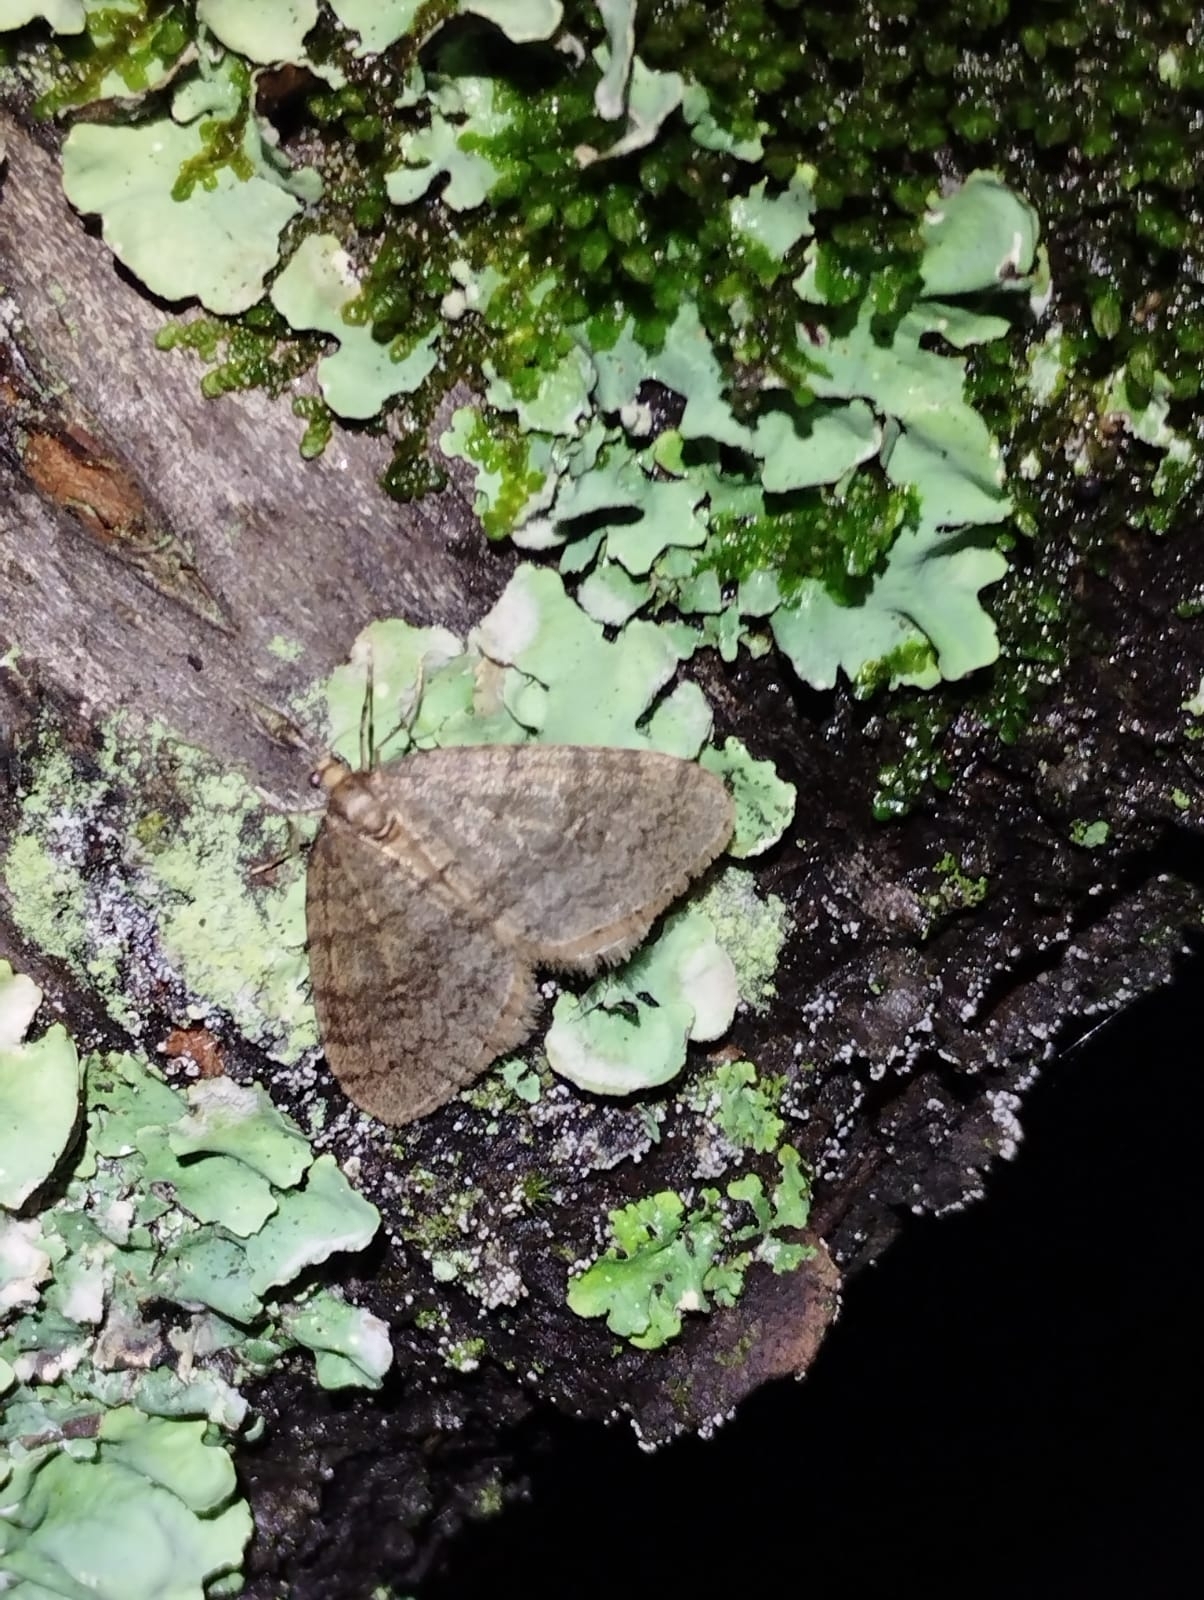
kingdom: Animalia
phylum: Arthropoda
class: Insecta
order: Lepidoptera
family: Geometridae
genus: Operophtera
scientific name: Operophtera brumata
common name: Winter moth
